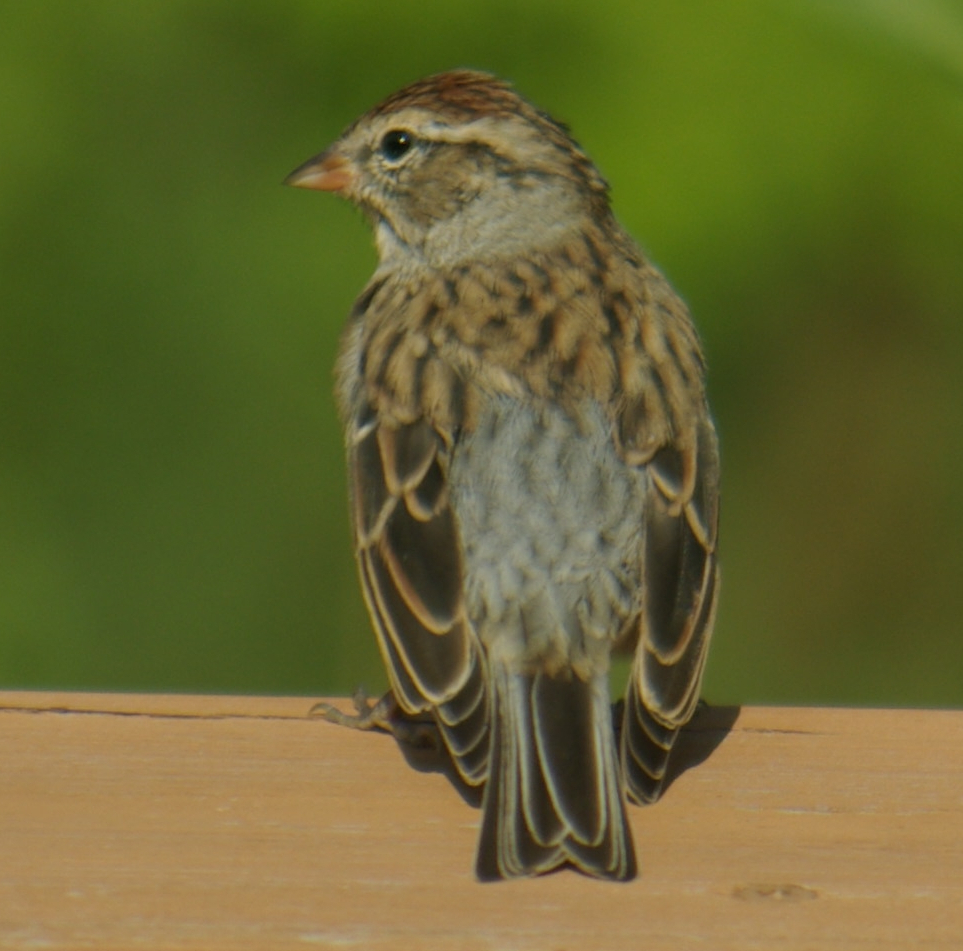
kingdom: Animalia
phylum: Chordata
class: Aves
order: Passeriformes
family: Passerellidae
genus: Spizella
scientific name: Spizella passerina
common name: Chipping sparrow
